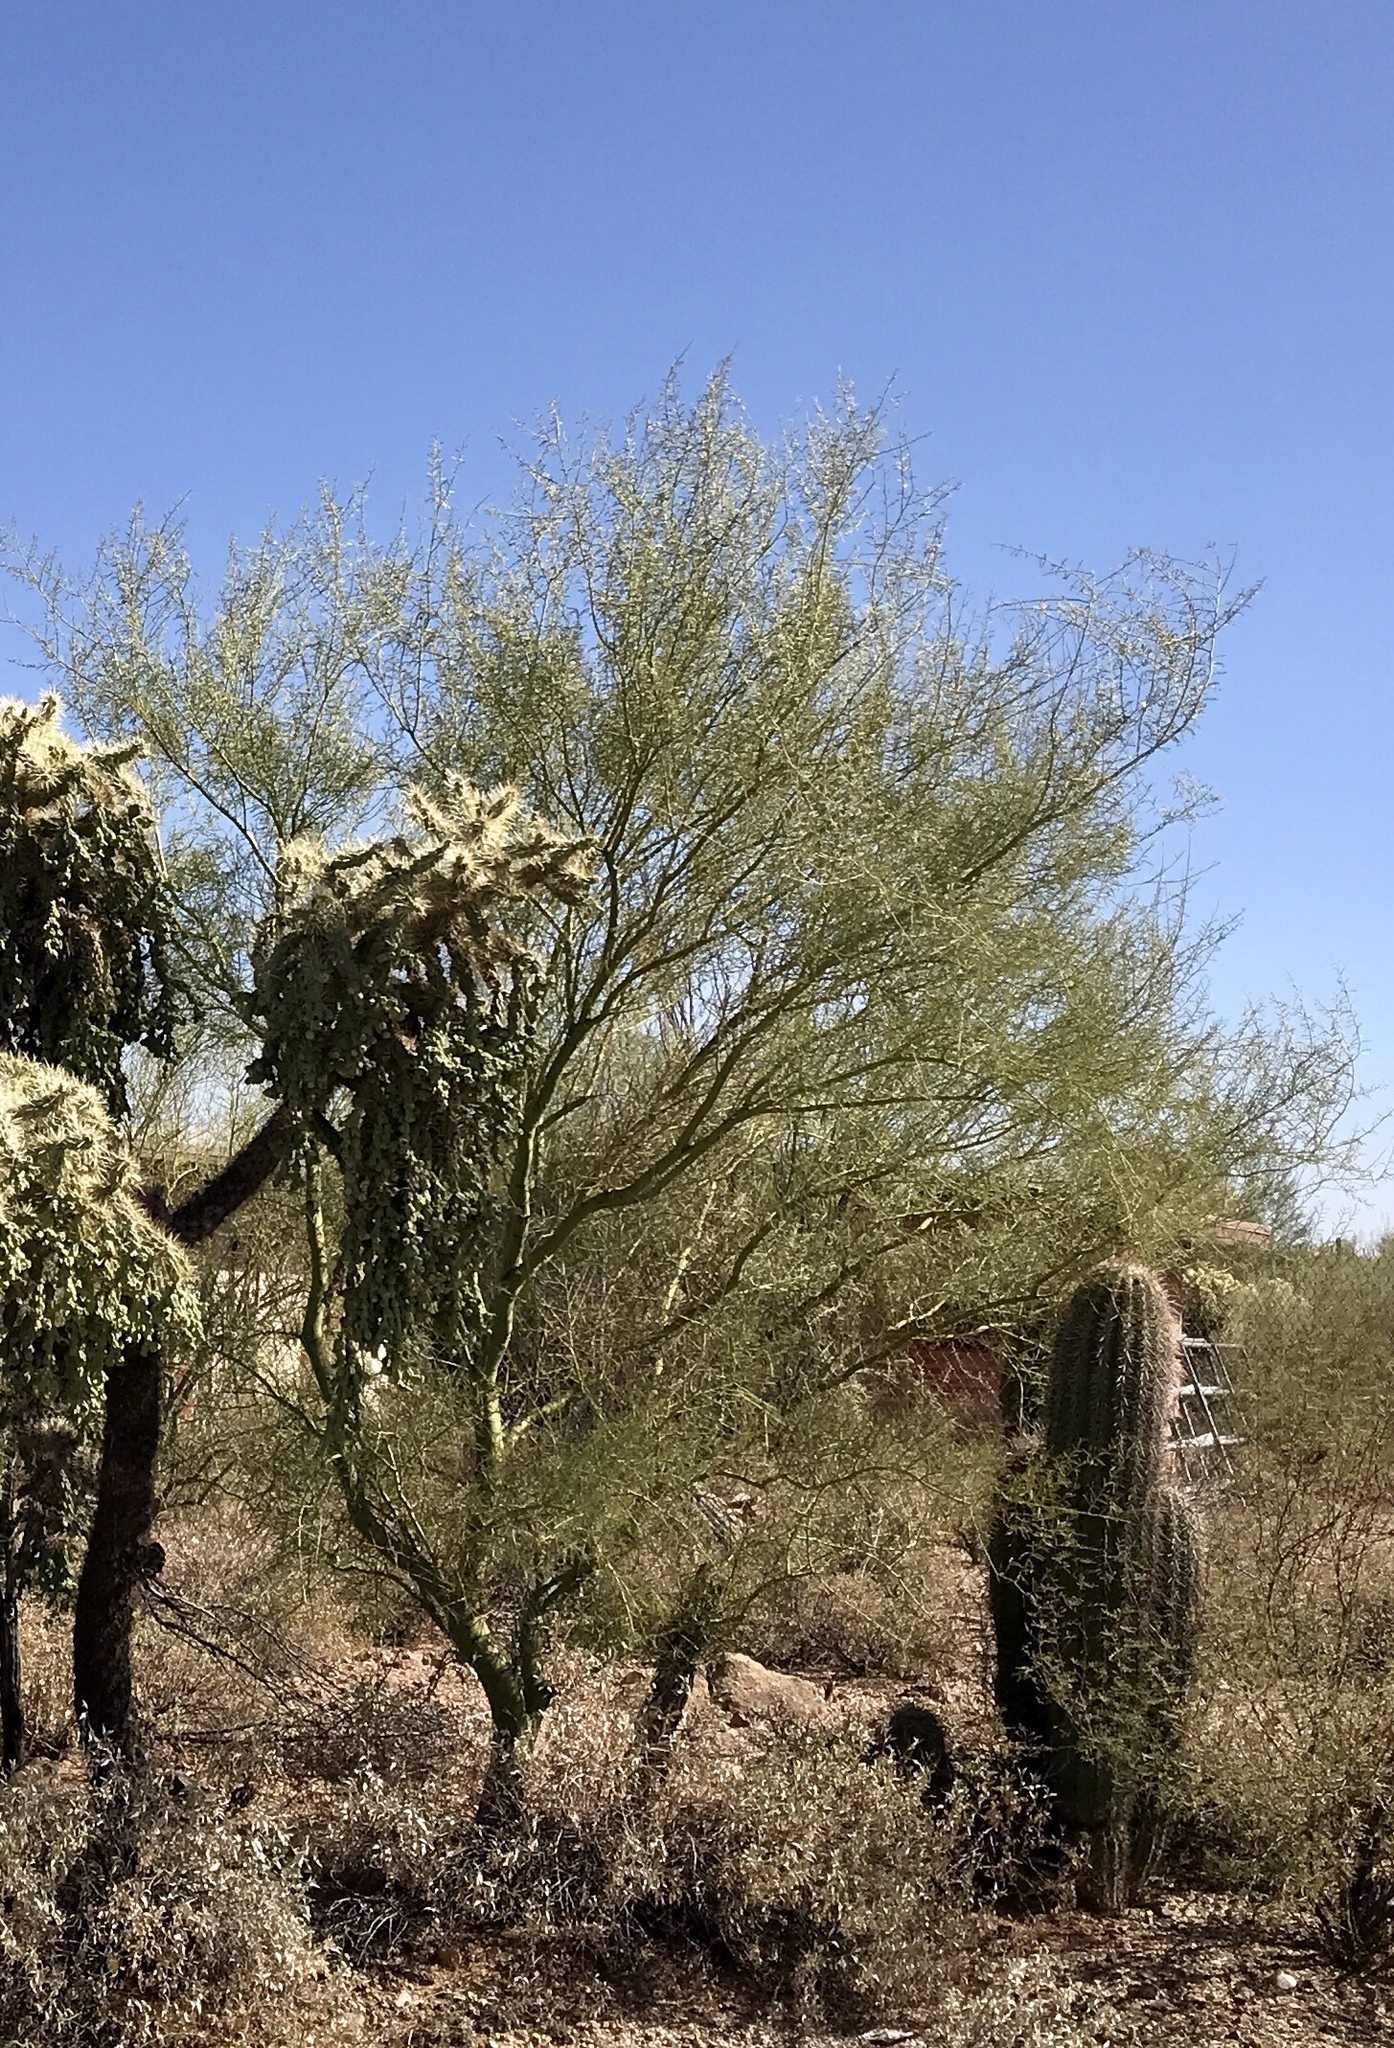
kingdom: Plantae
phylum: Tracheophyta
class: Magnoliopsida
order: Fabales
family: Fabaceae
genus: Parkinsonia
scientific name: Parkinsonia microphylla
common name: Yellow paloverde
